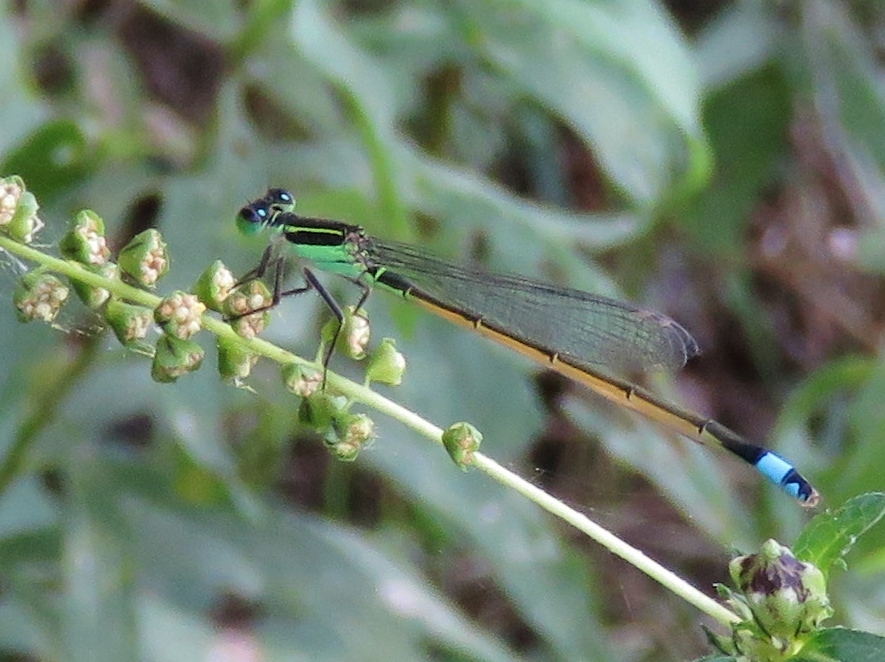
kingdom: Animalia
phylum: Arthropoda
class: Insecta
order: Odonata
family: Coenagrionidae
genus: Ischnura
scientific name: Ischnura ramburii
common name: Rambur's forktail
